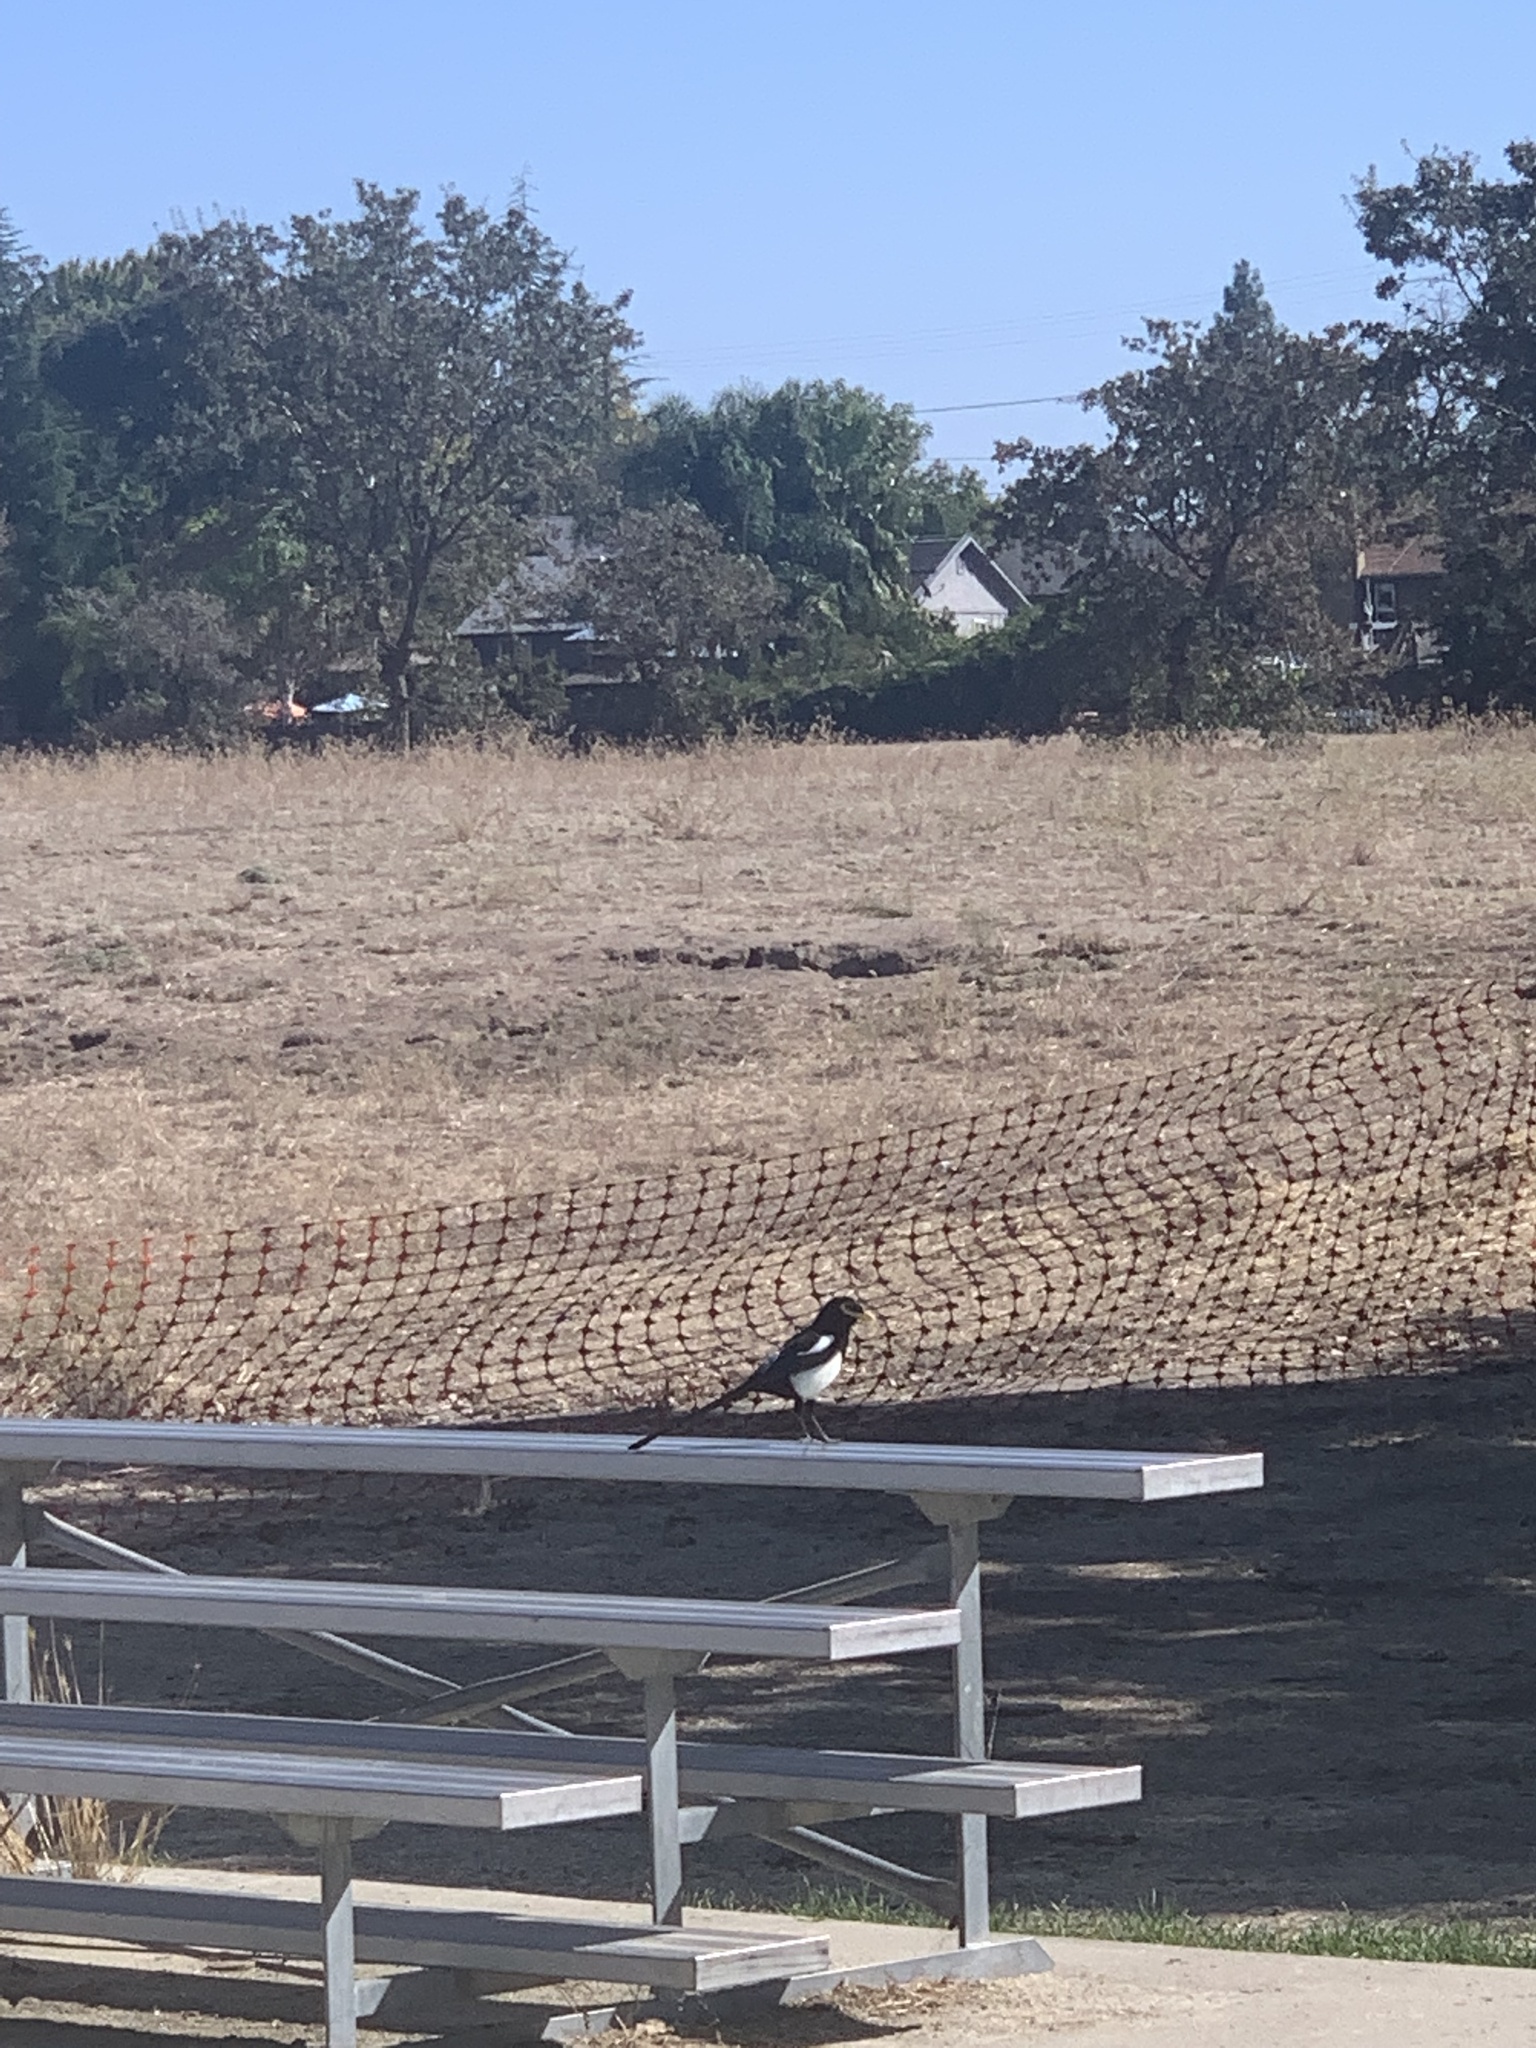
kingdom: Animalia
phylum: Chordata
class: Aves
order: Passeriformes
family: Corvidae
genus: Pica
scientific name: Pica nuttalli
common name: Yellow-billed magpie
